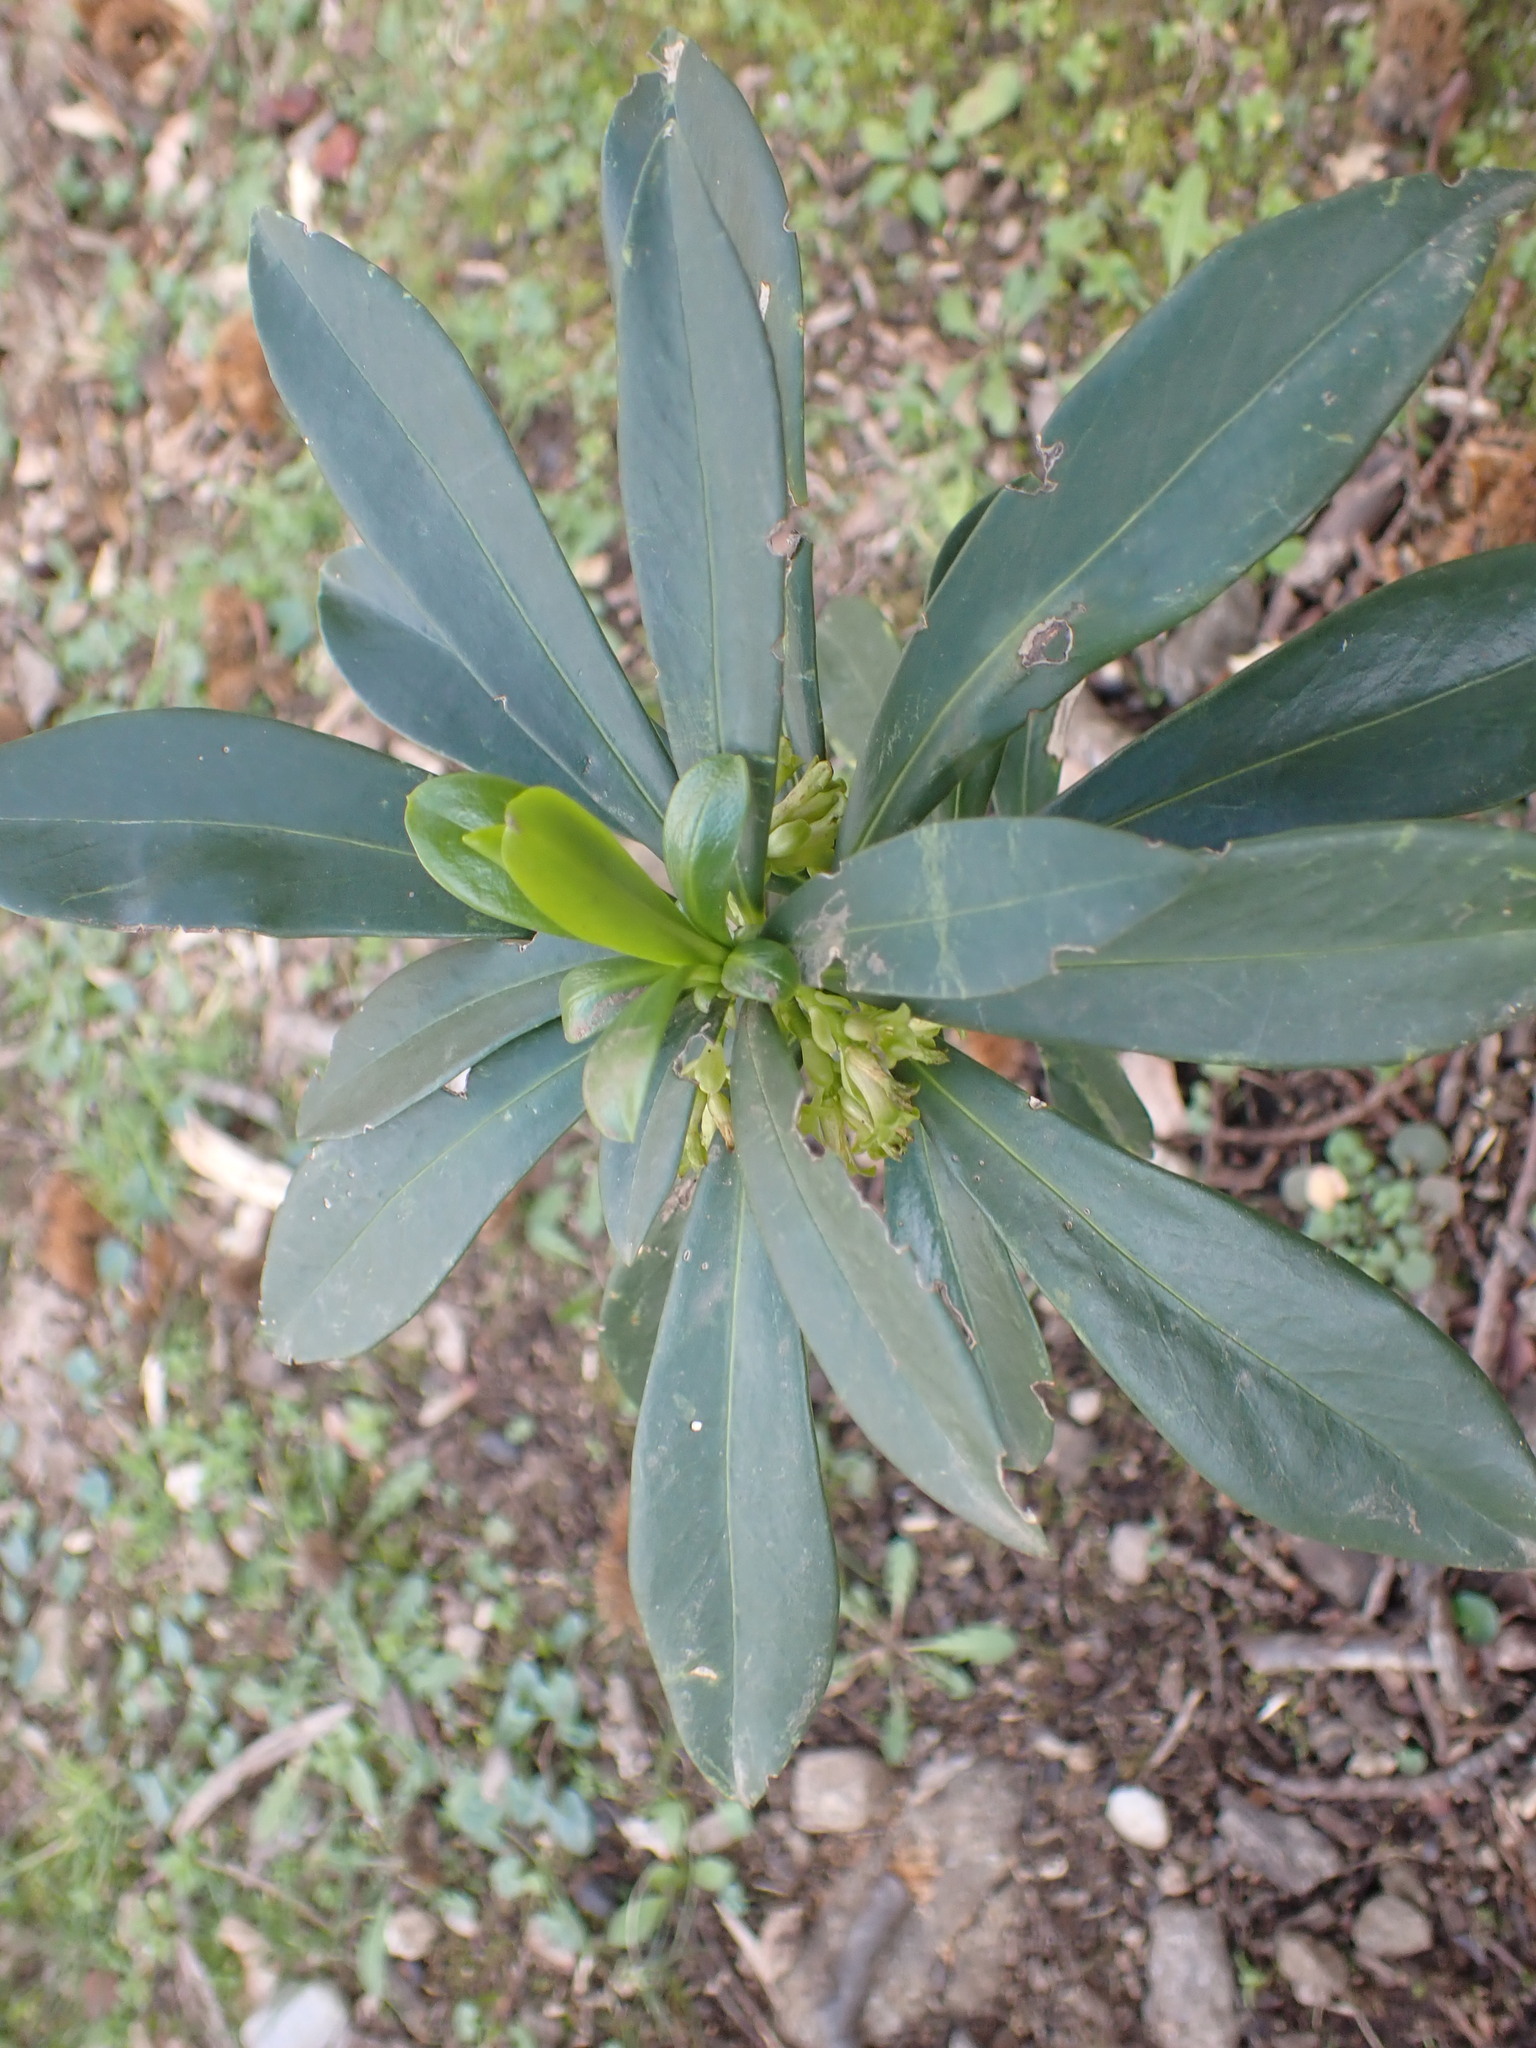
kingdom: Plantae
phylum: Tracheophyta
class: Magnoliopsida
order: Malvales
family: Thymelaeaceae
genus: Daphne
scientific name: Daphne laureola
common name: Spurge-laurel
